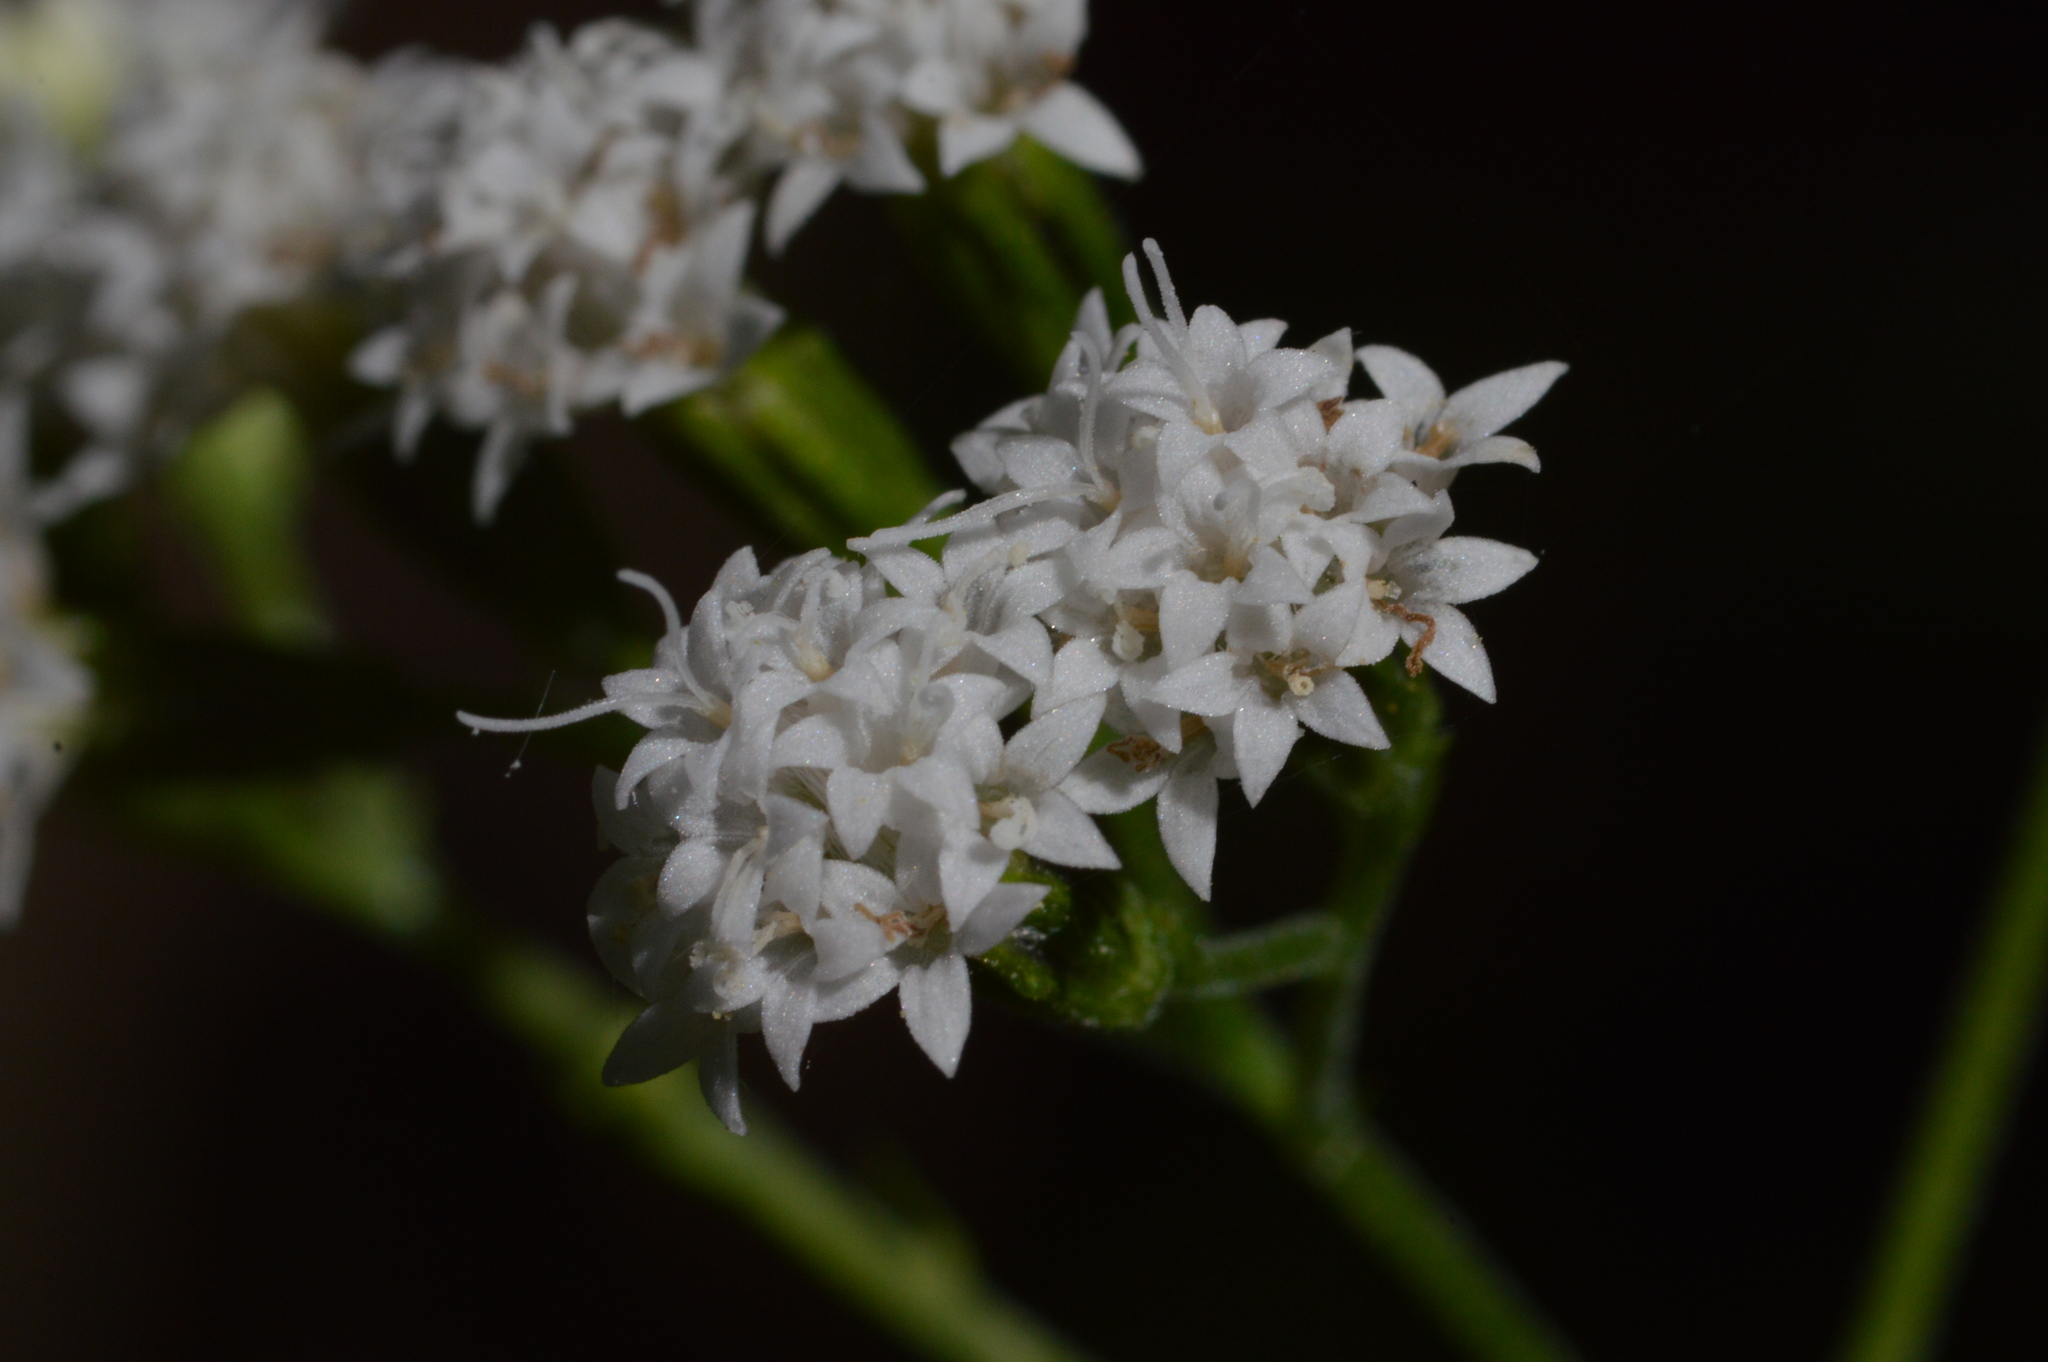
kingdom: Plantae
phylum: Tracheophyta
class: Magnoliopsida
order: Asterales
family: Asteraceae
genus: Ageratina
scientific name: Ageratina altissima
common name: White snakeroot
